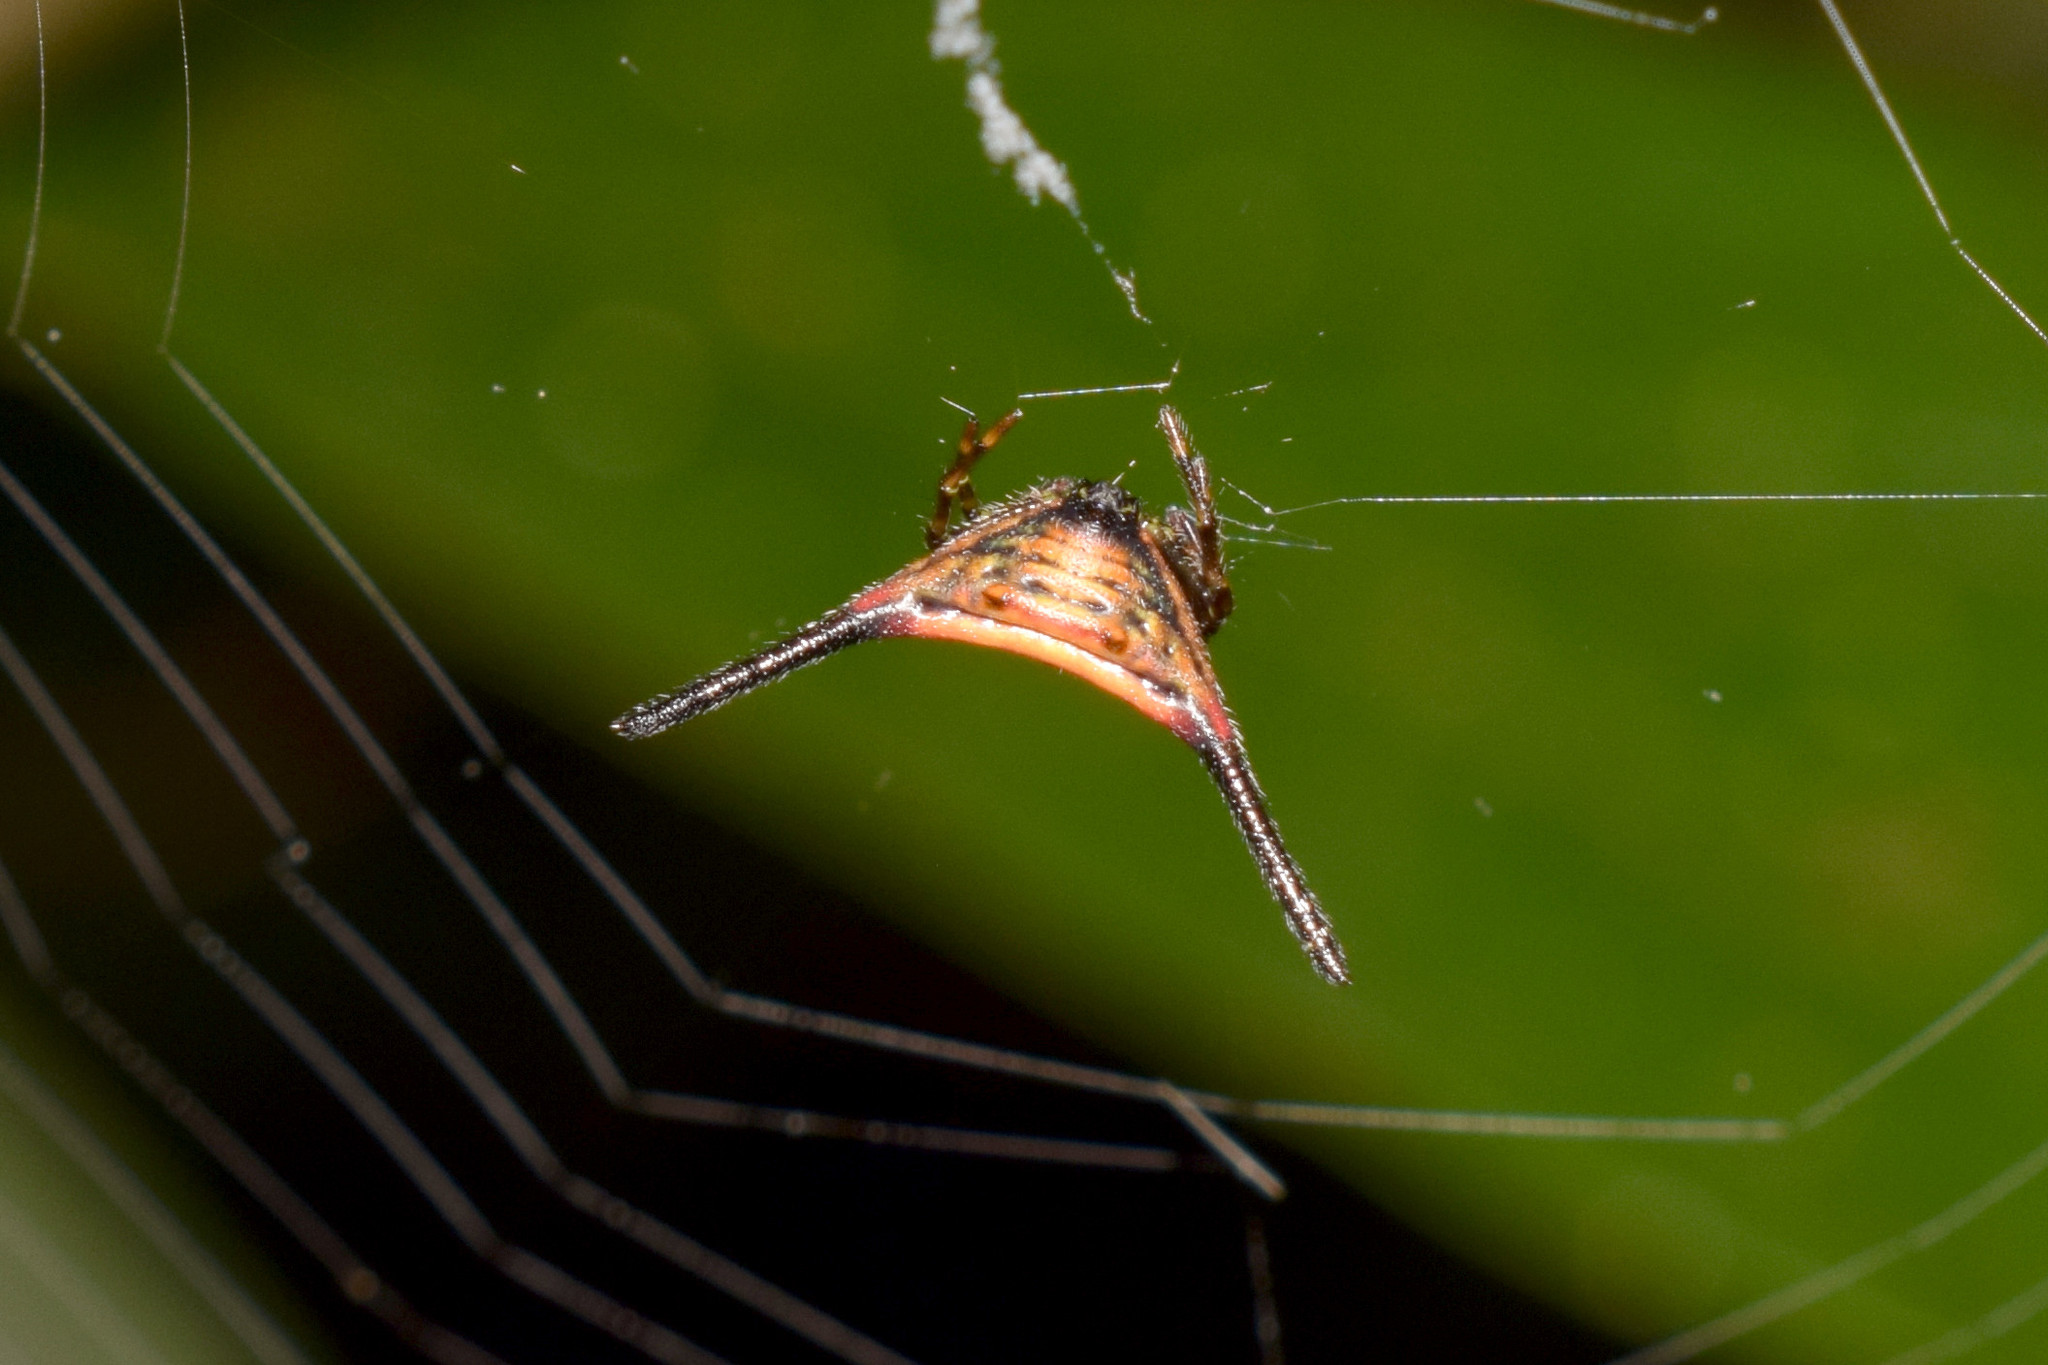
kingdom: Animalia
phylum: Arthropoda
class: Arachnida
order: Araneae
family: Araneidae
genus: Macracantha
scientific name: Macracantha arcuata
